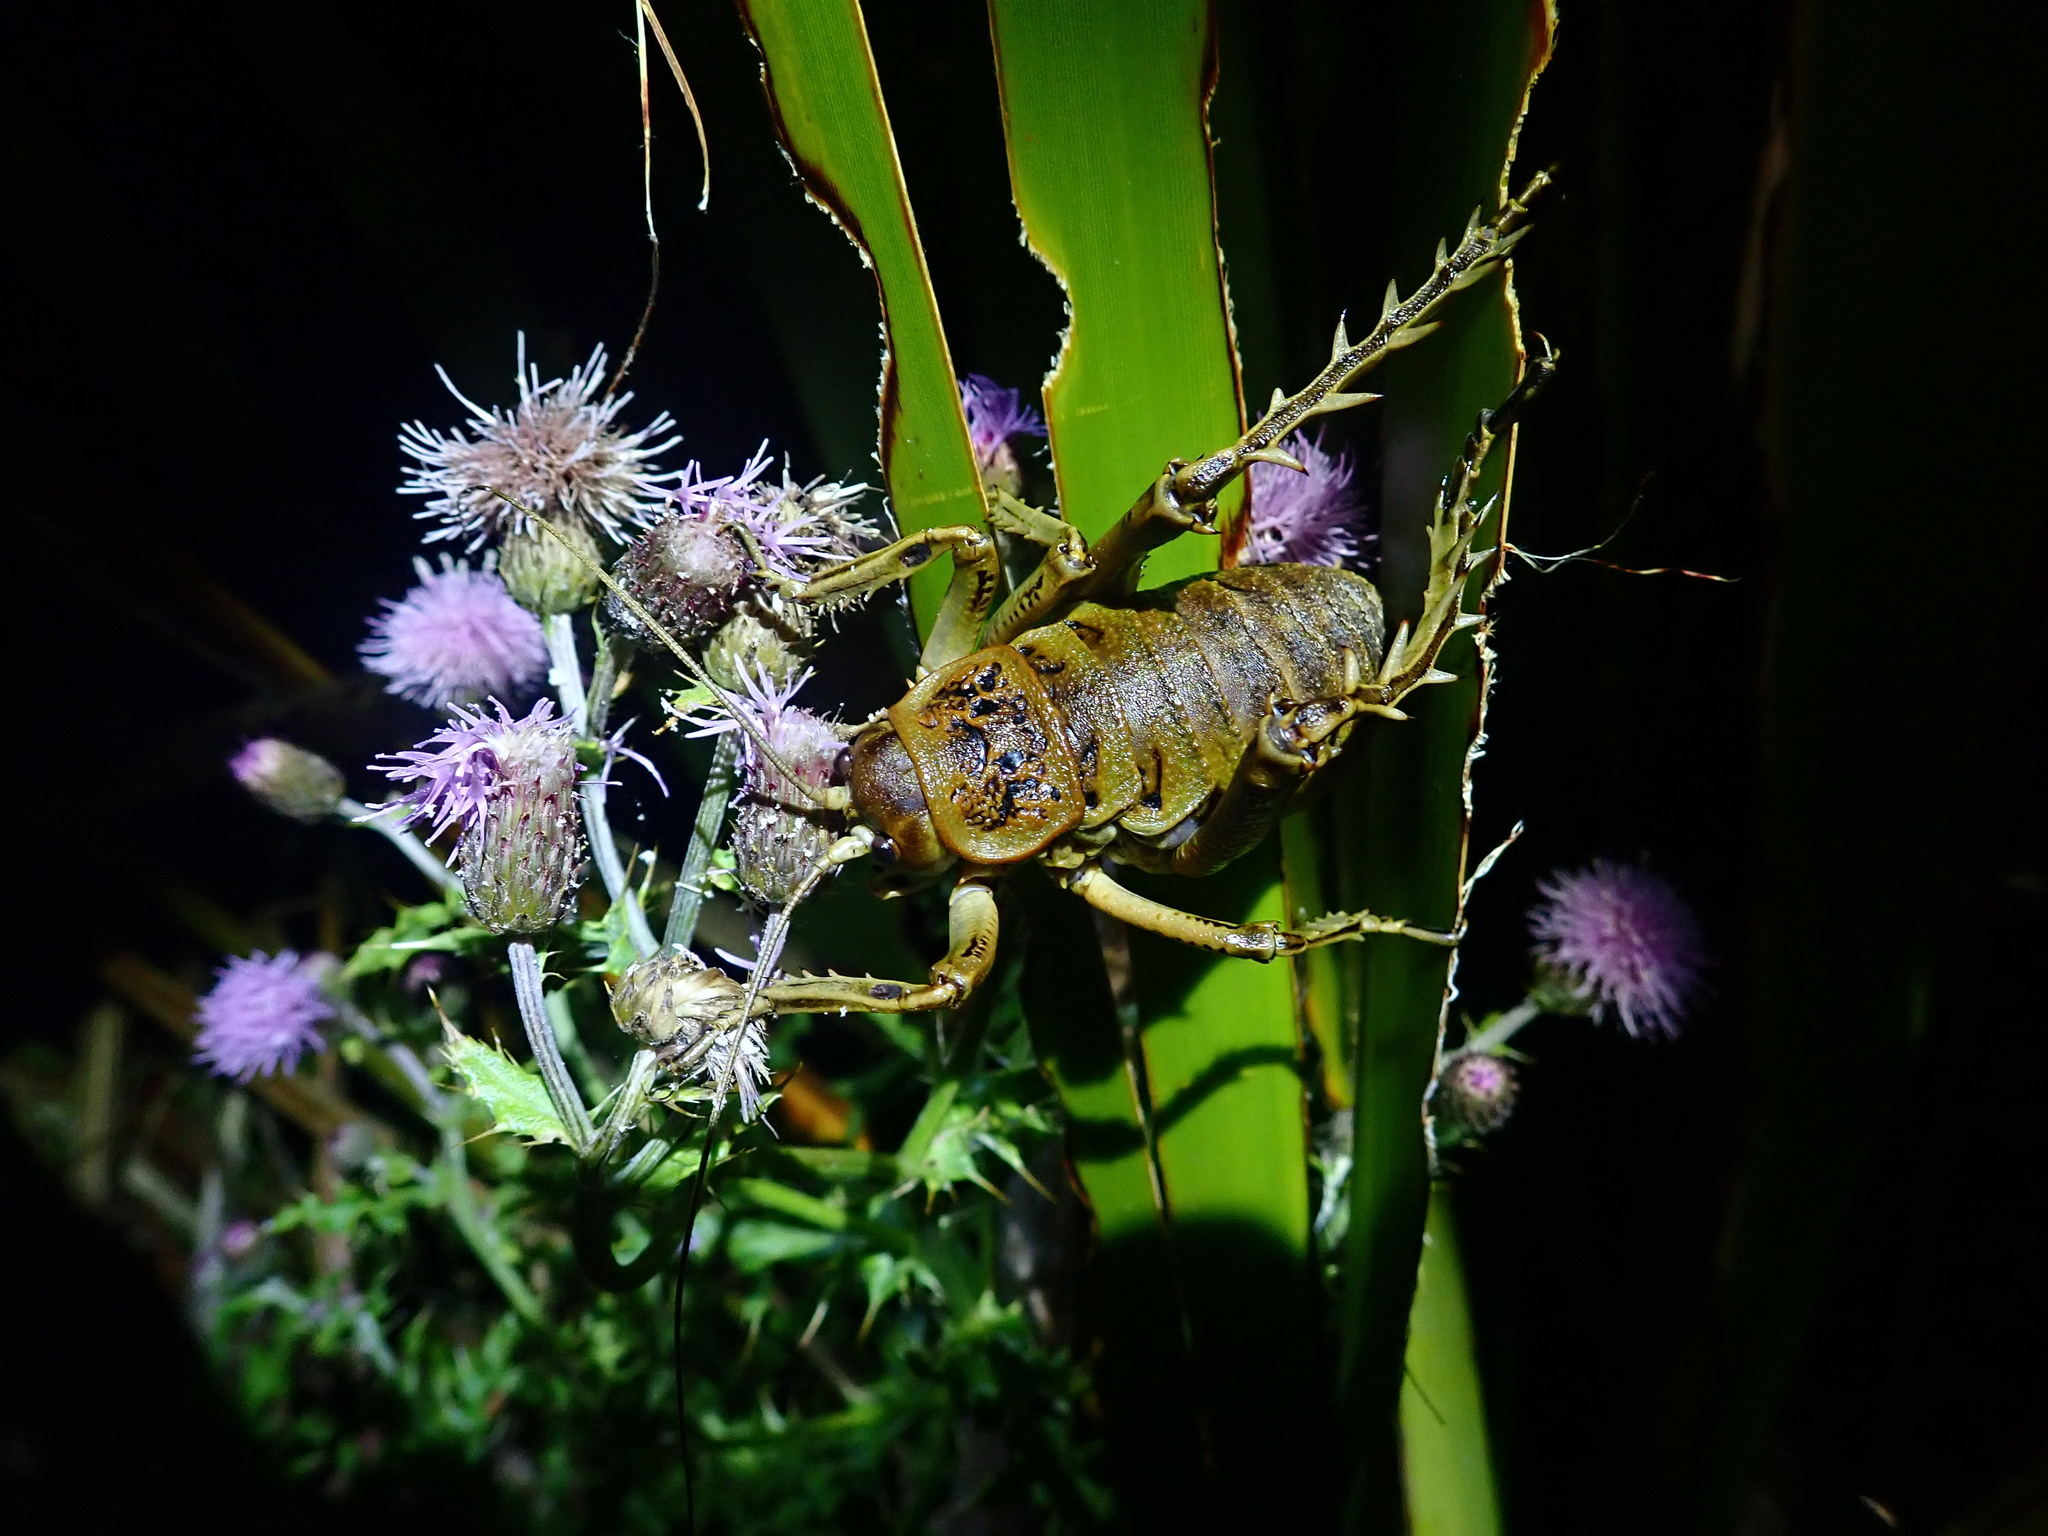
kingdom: Animalia
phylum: Arthropoda
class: Insecta
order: Orthoptera
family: Anostostomatidae
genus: Deinacrida
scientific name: Deinacrida rugosa
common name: Stephens island weta
